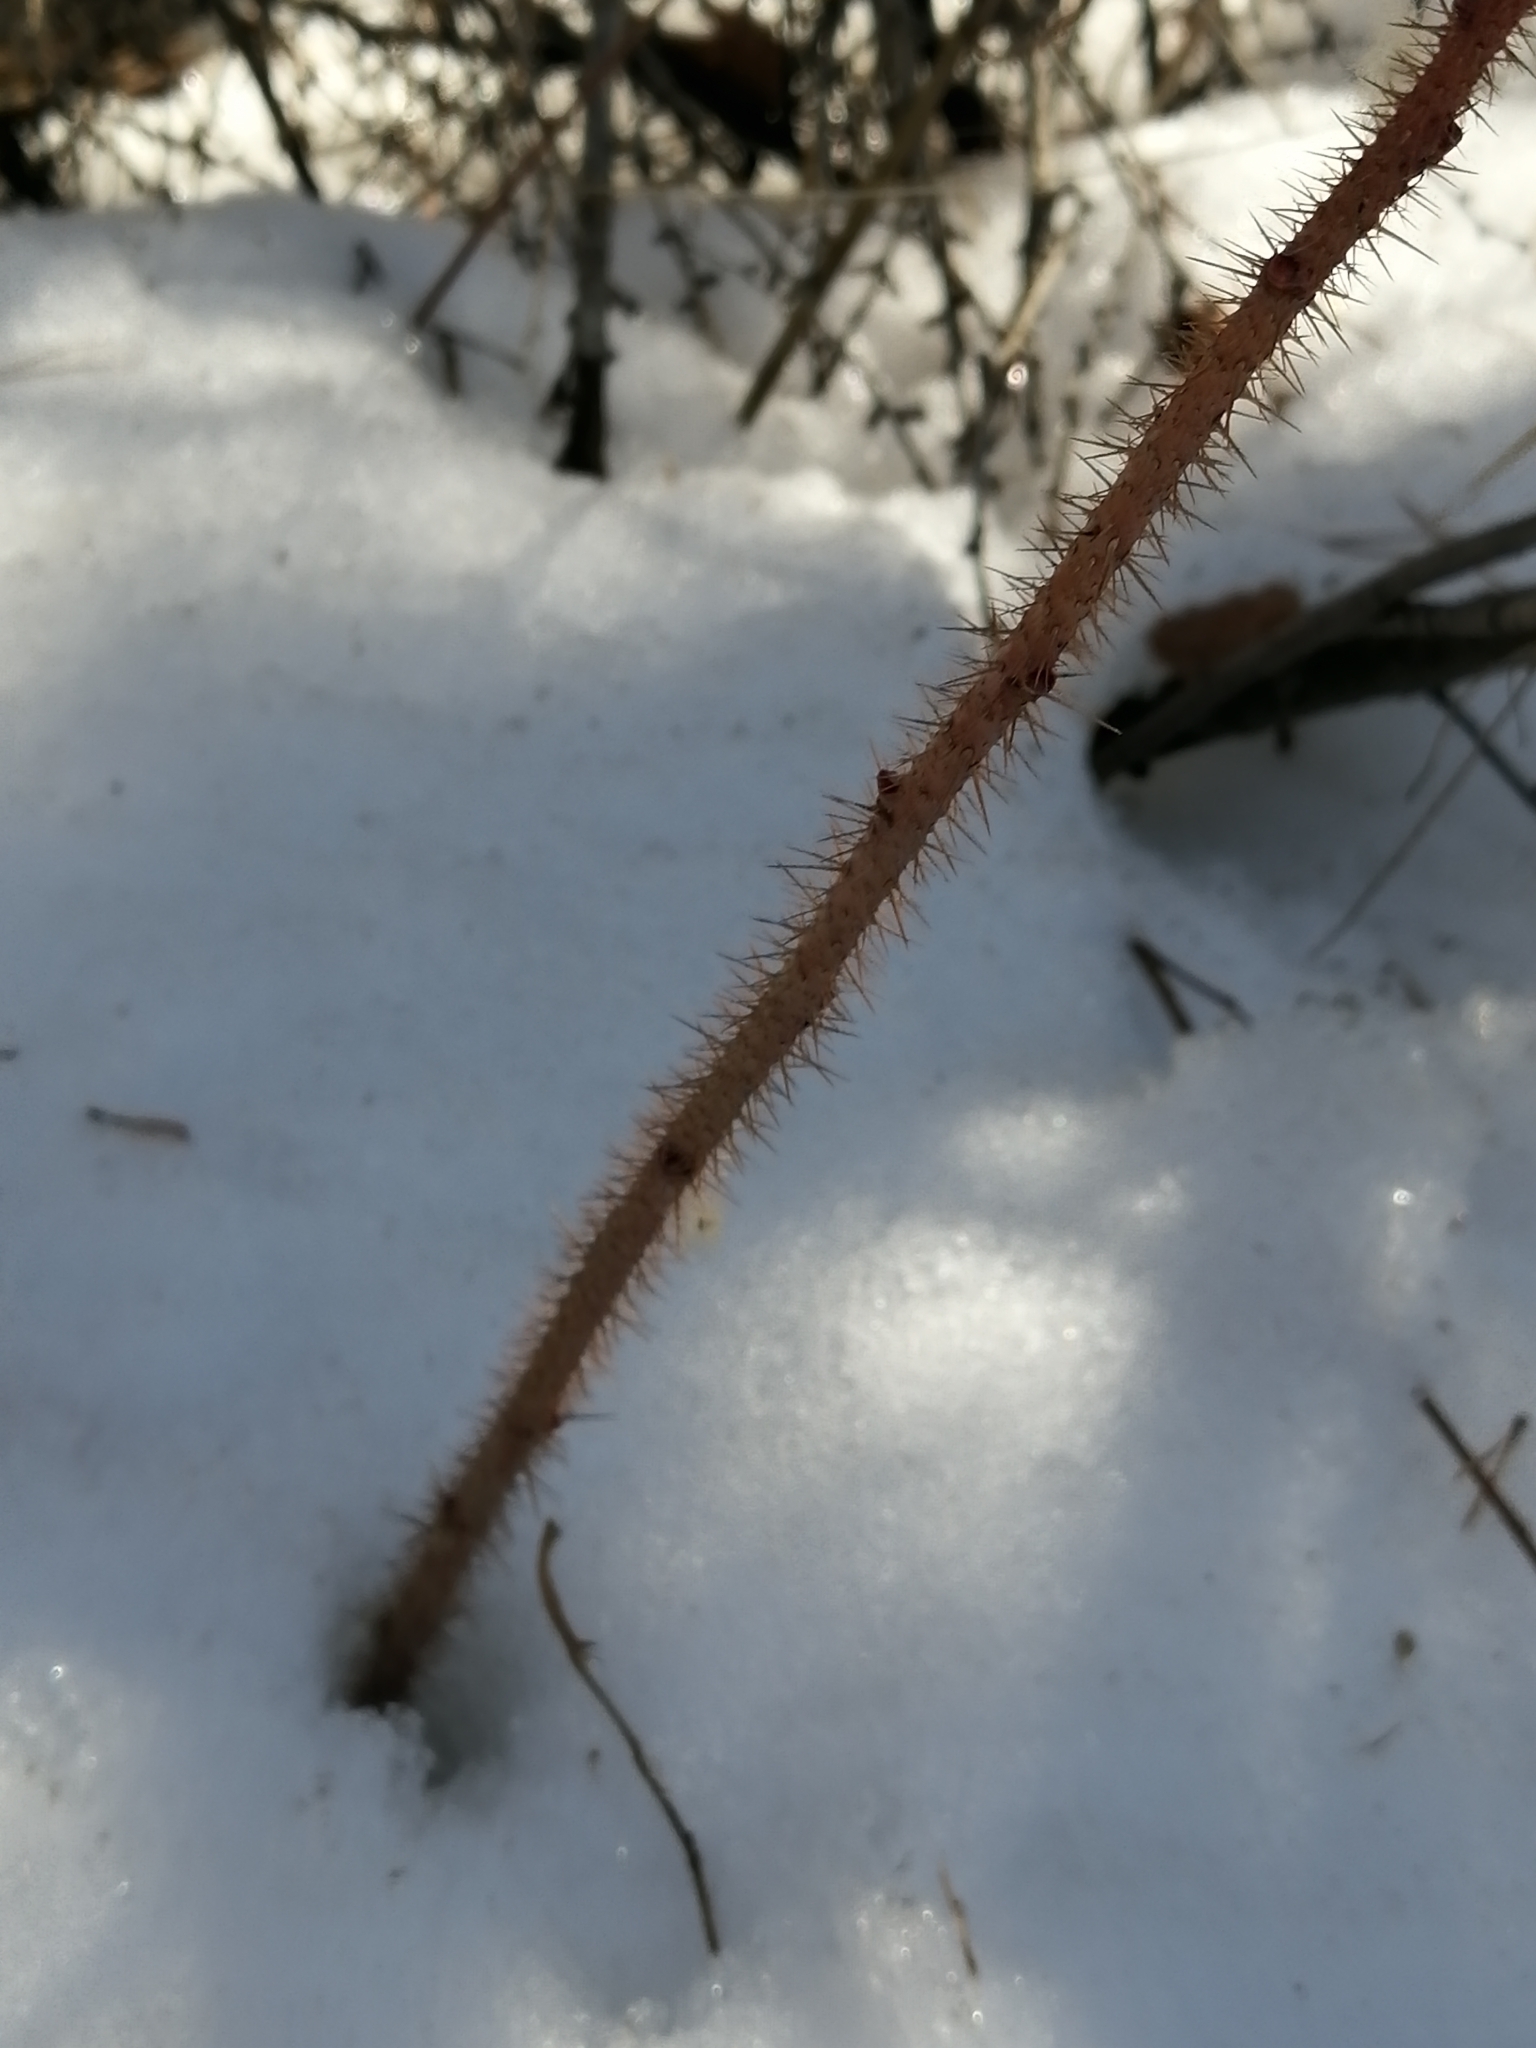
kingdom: Plantae
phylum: Tracheophyta
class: Magnoliopsida
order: Rosales
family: Rosaceae
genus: Rosa
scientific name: Rosa acicularis
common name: Prickly rose
